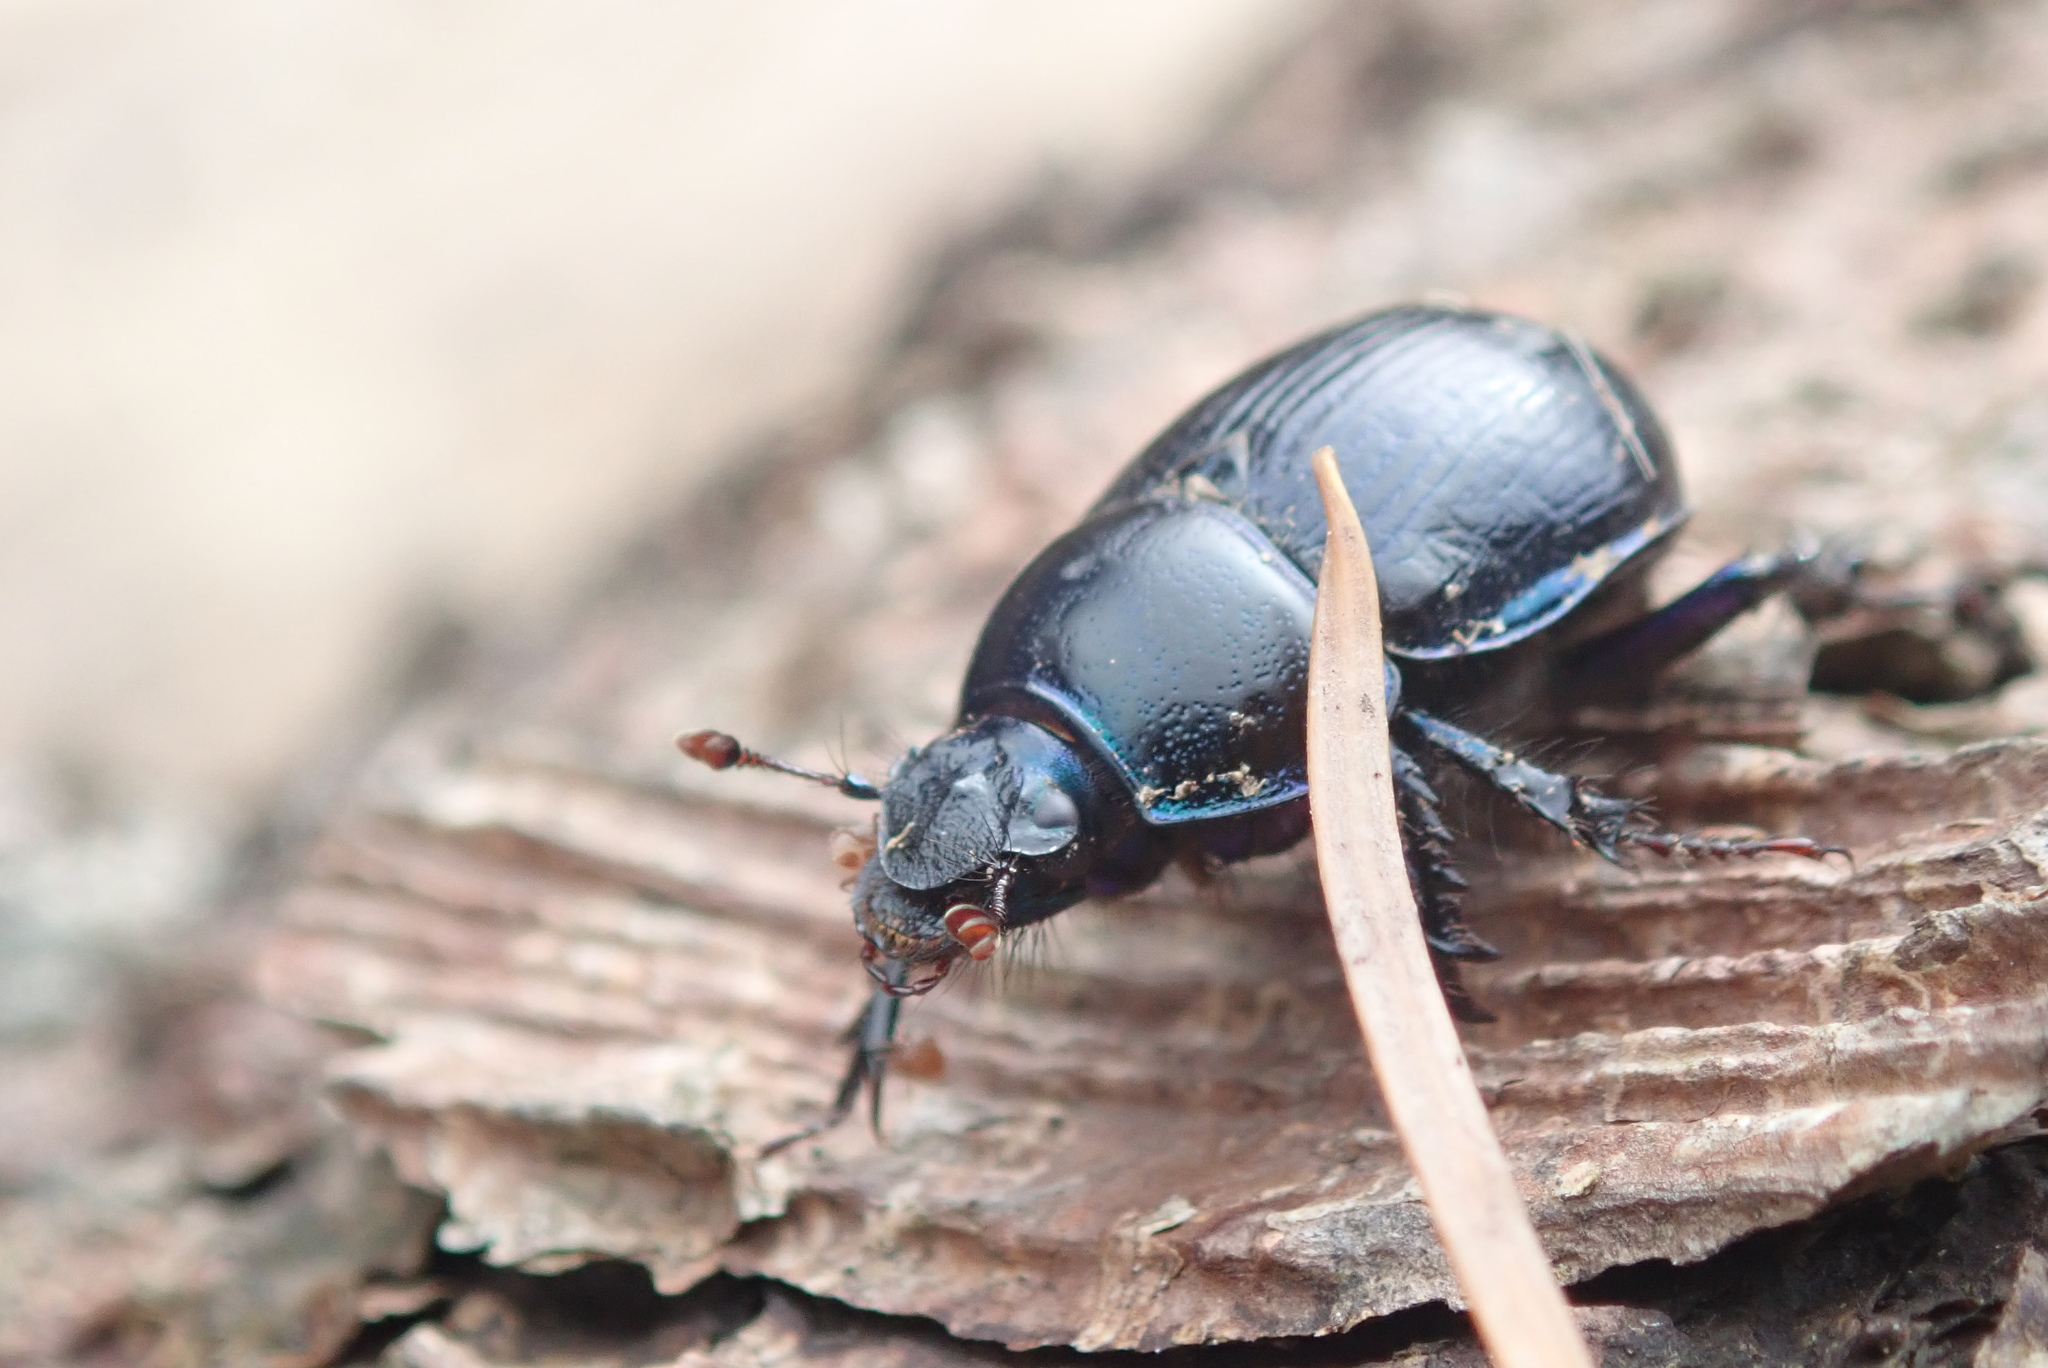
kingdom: Animalia
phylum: Arthropoda
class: Insecta
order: Coleoptera
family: Geotrupidae
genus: Anoplotrupes
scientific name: Anoplotrupes stercorosus
